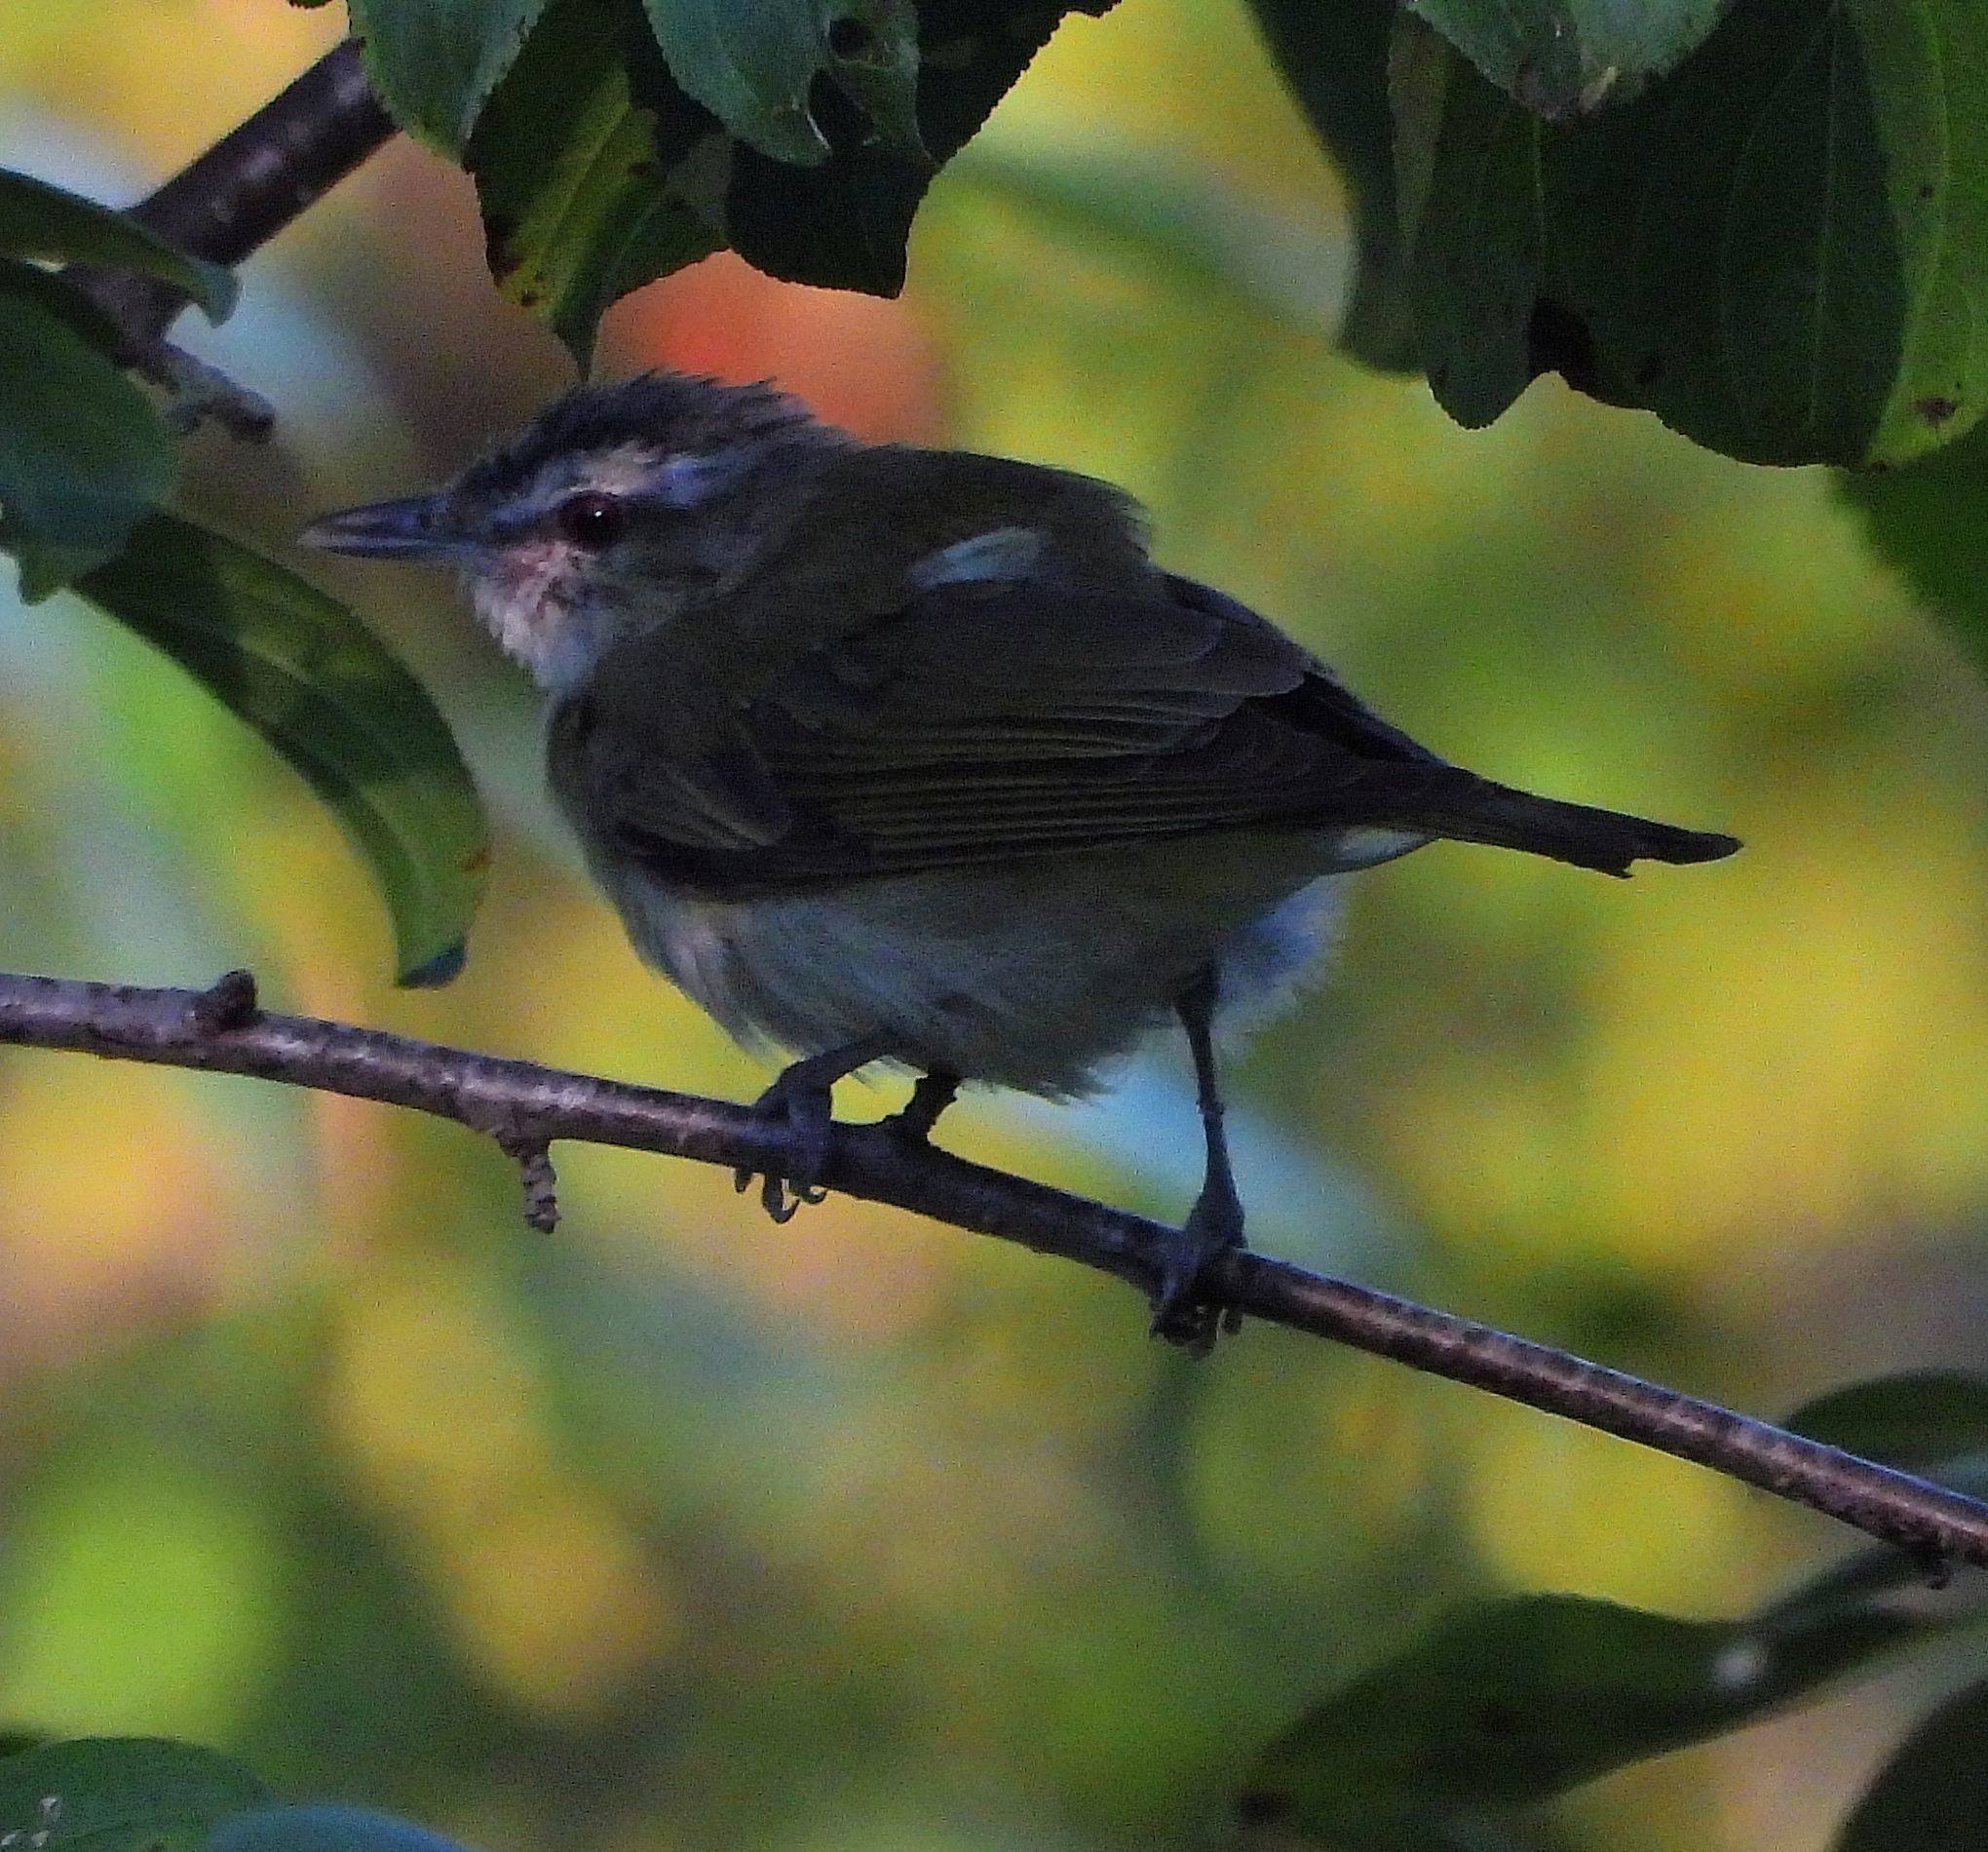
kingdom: Animalia
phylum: Chordata
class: Aves
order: Passeriformes
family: Vireonidae
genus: Vireo
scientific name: Vireo olivaceus
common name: Red-eyed vireo
